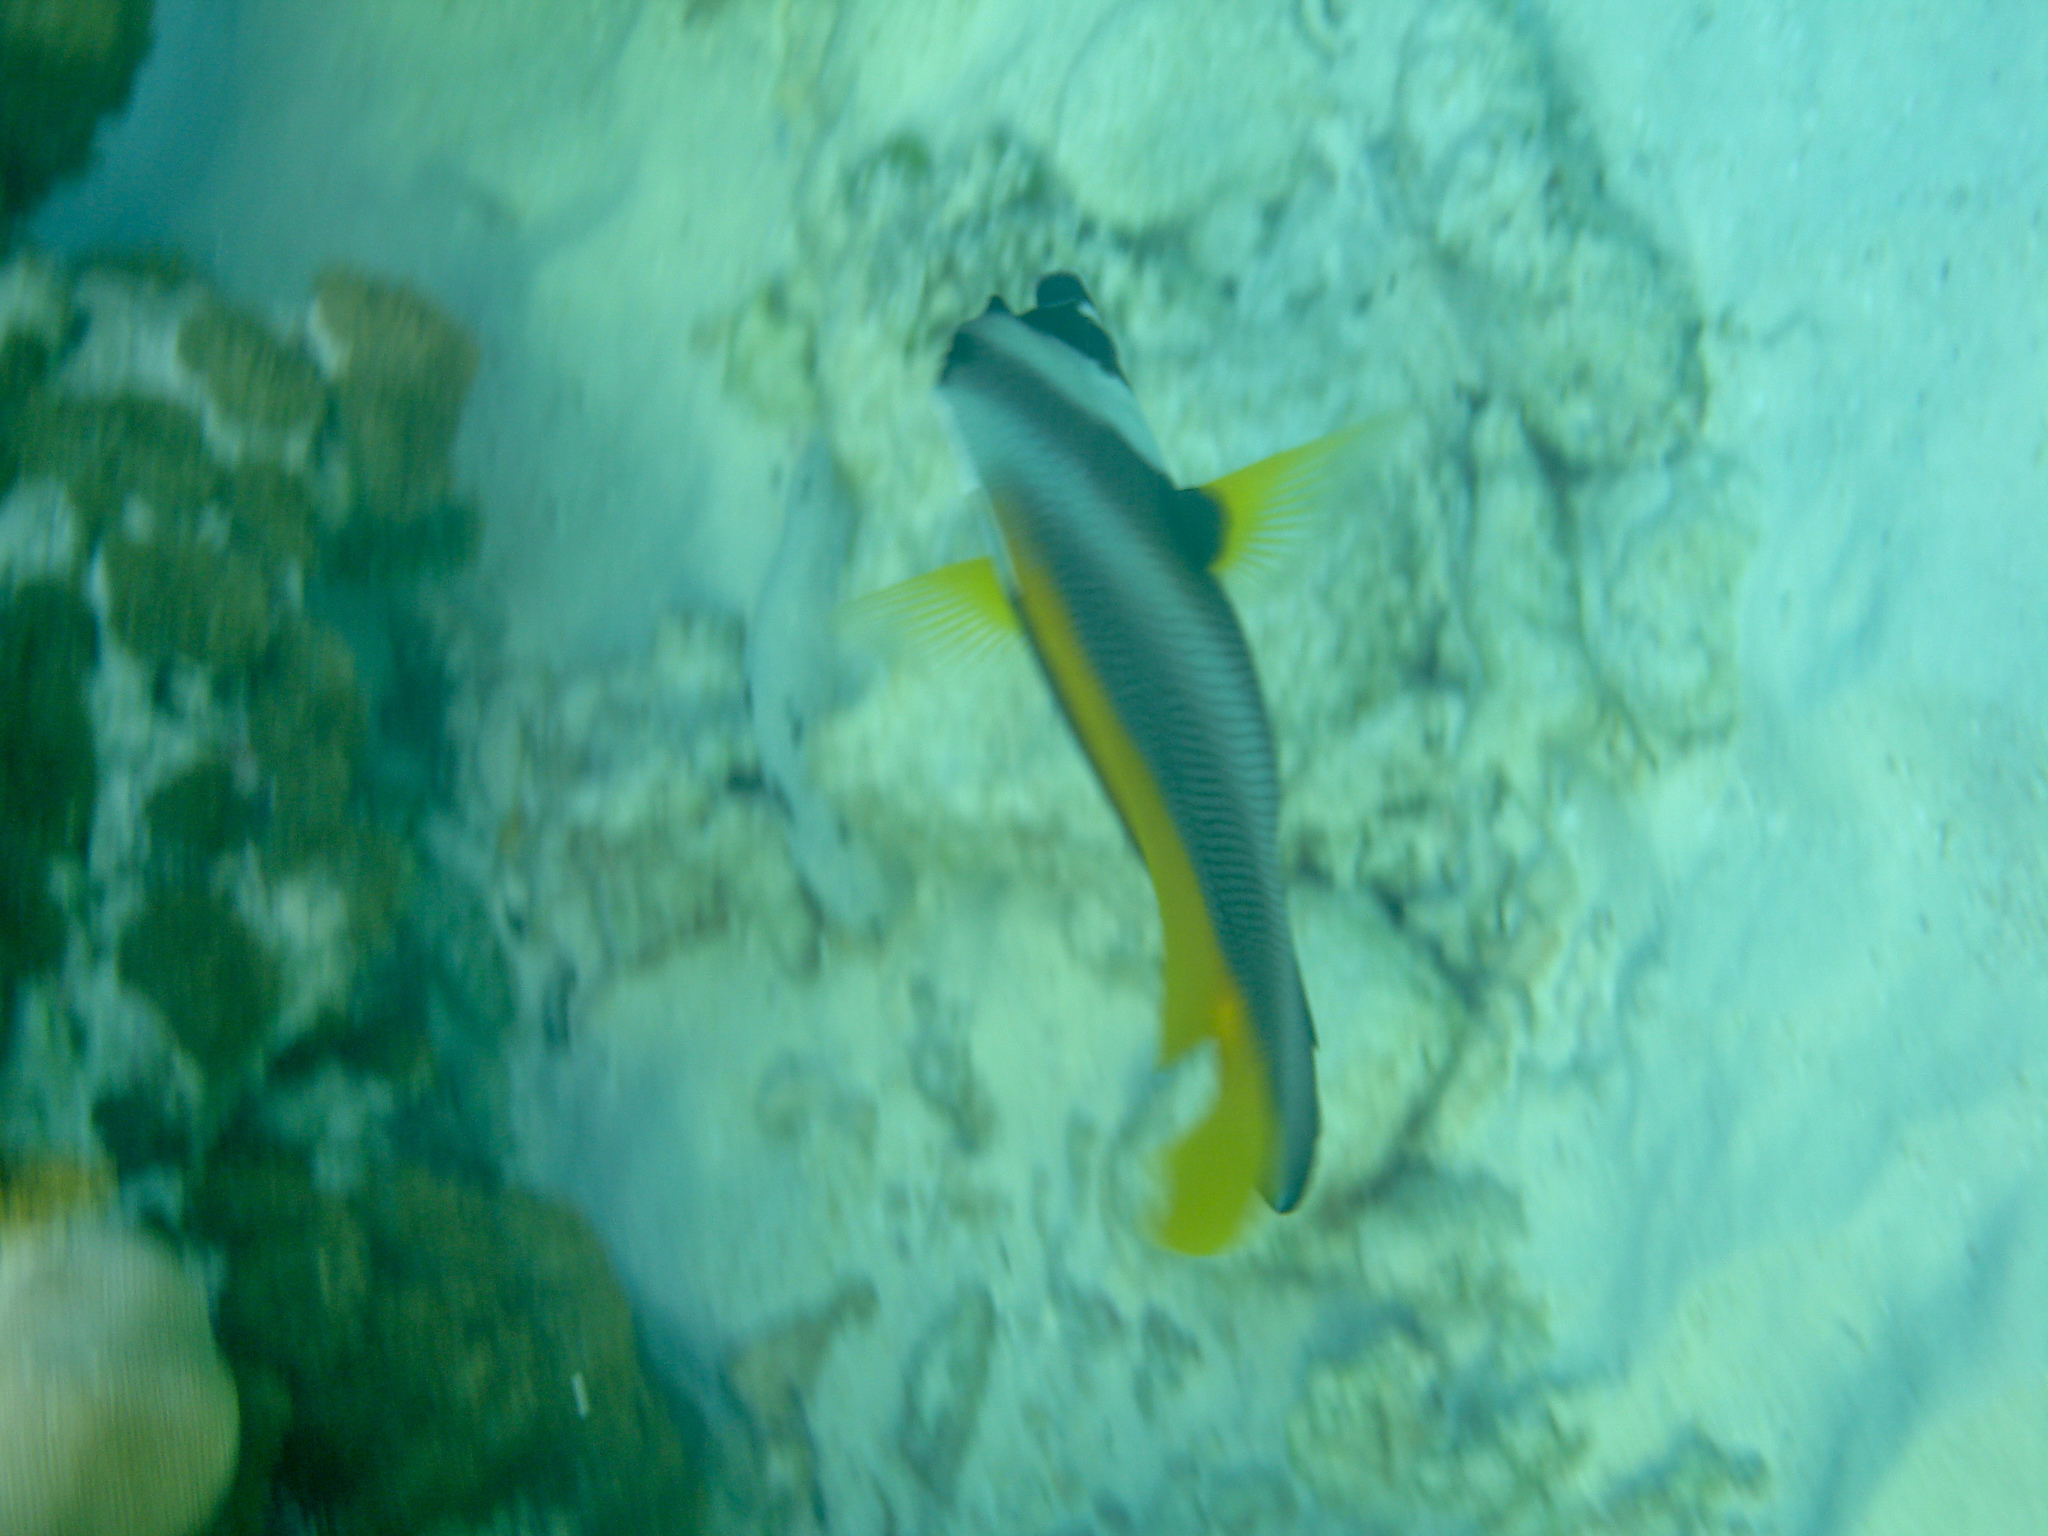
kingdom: Animalia
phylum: Chordata
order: Perciformes
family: Chaetodontidae
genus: Heniochus
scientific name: Heniochus singularius
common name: Singular bannerfish
